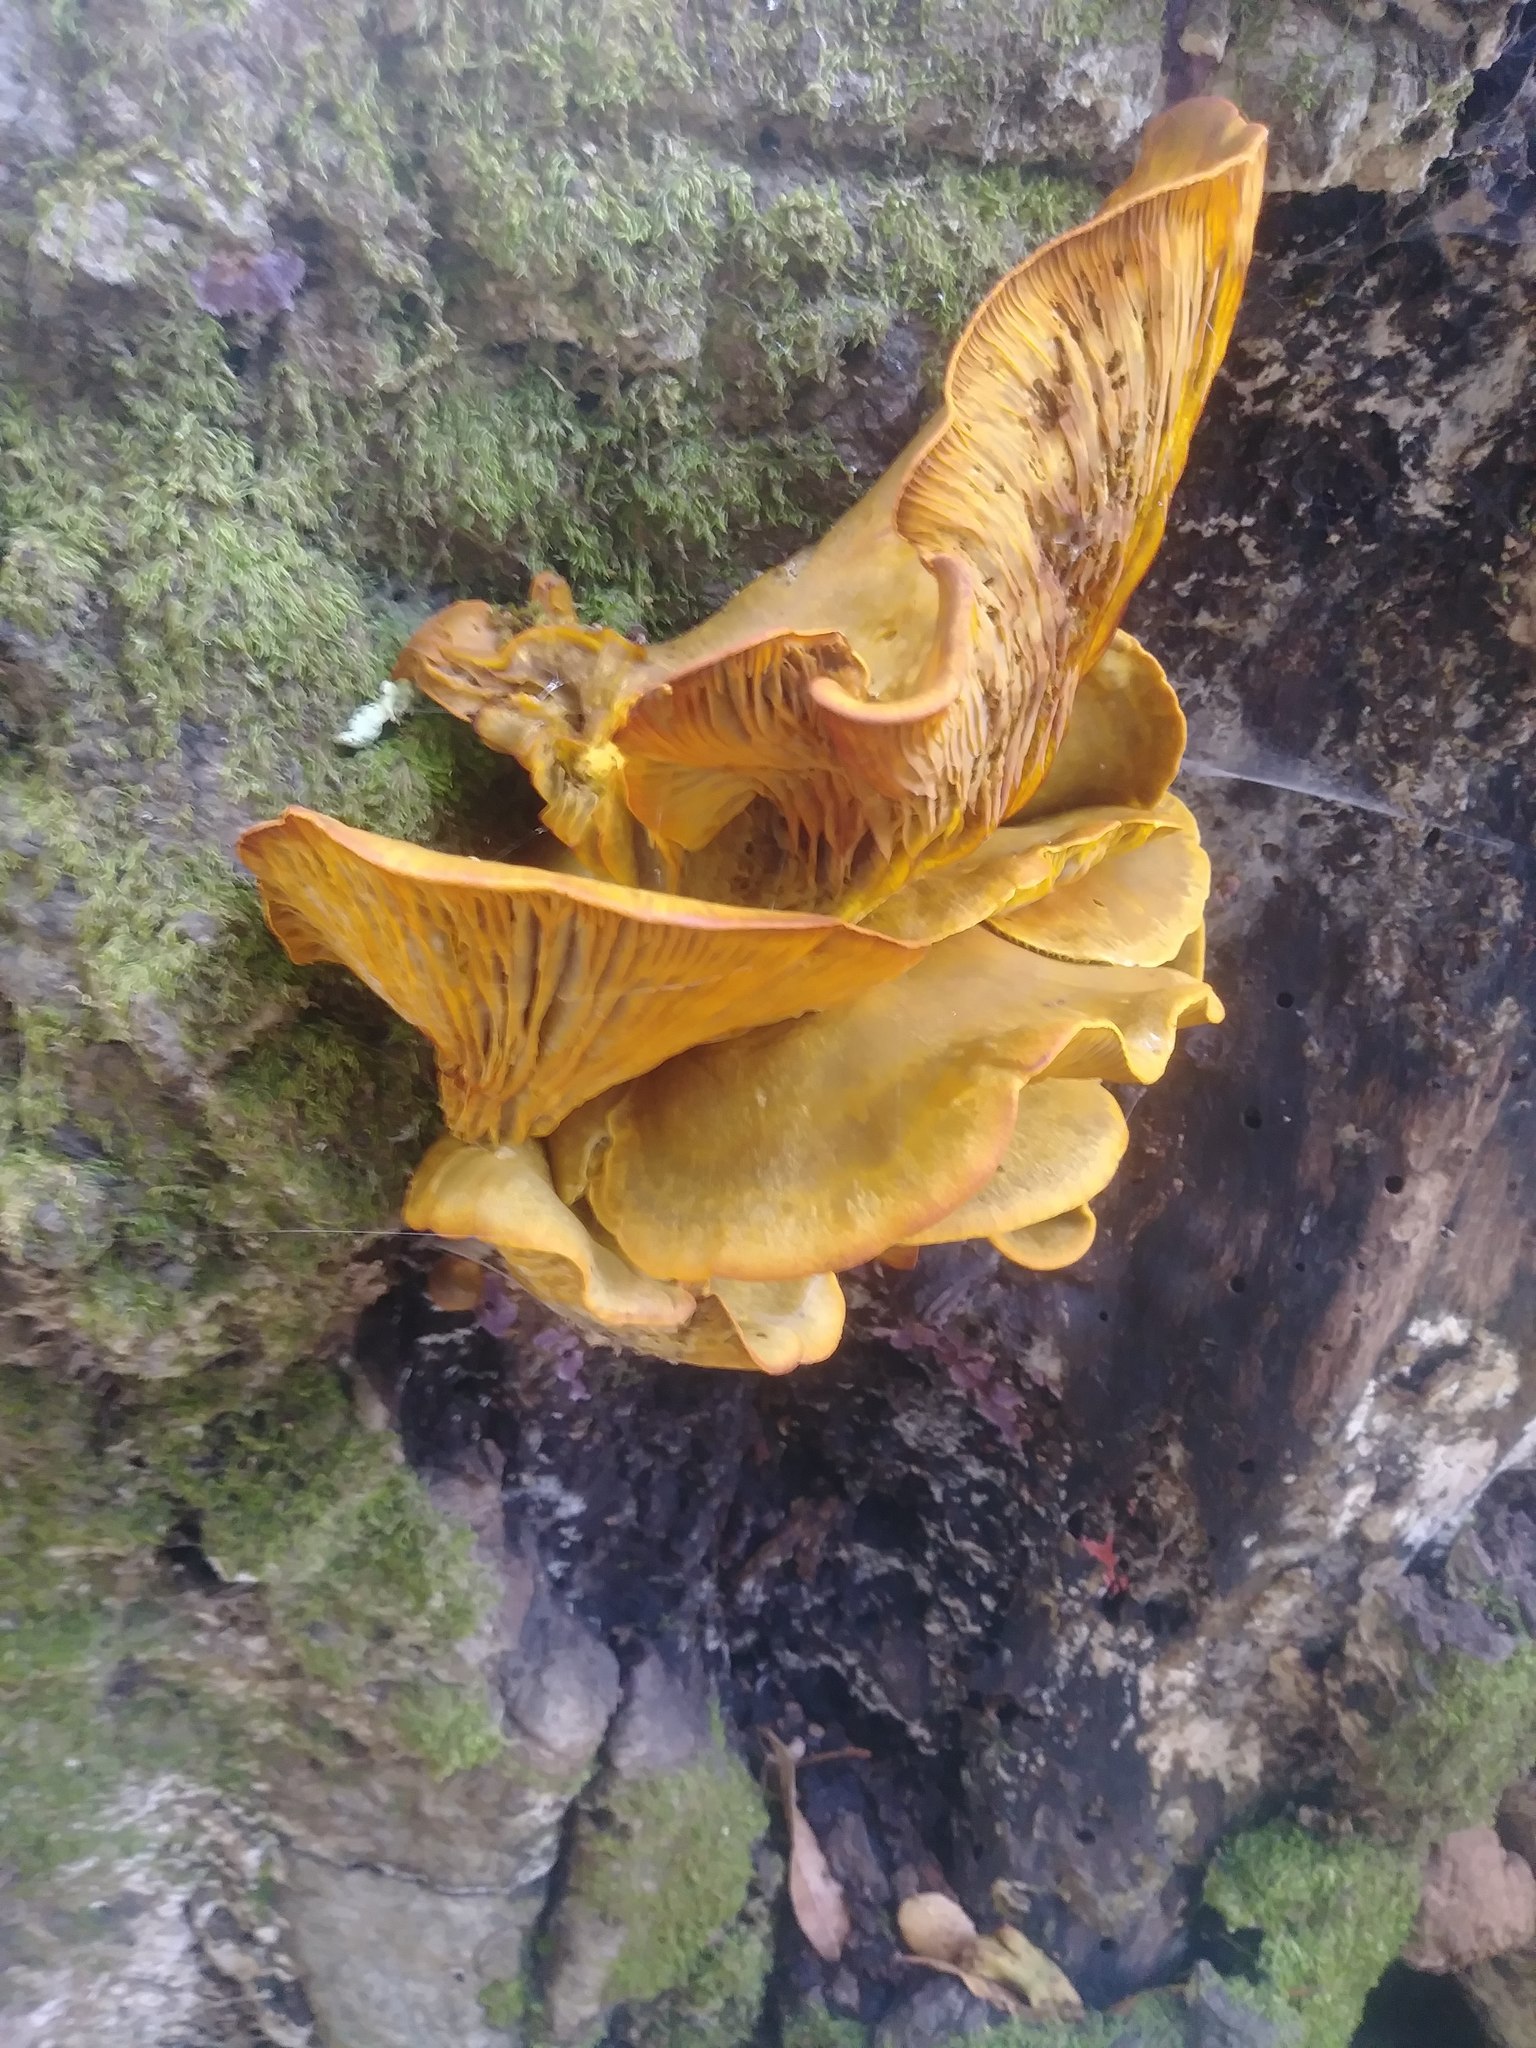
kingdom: Fungi
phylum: Basidiomycota
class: Agaricomycetes
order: Agaricales
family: Omphalotaceae
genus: Omphalotus
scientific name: Omphalotus olivascens
